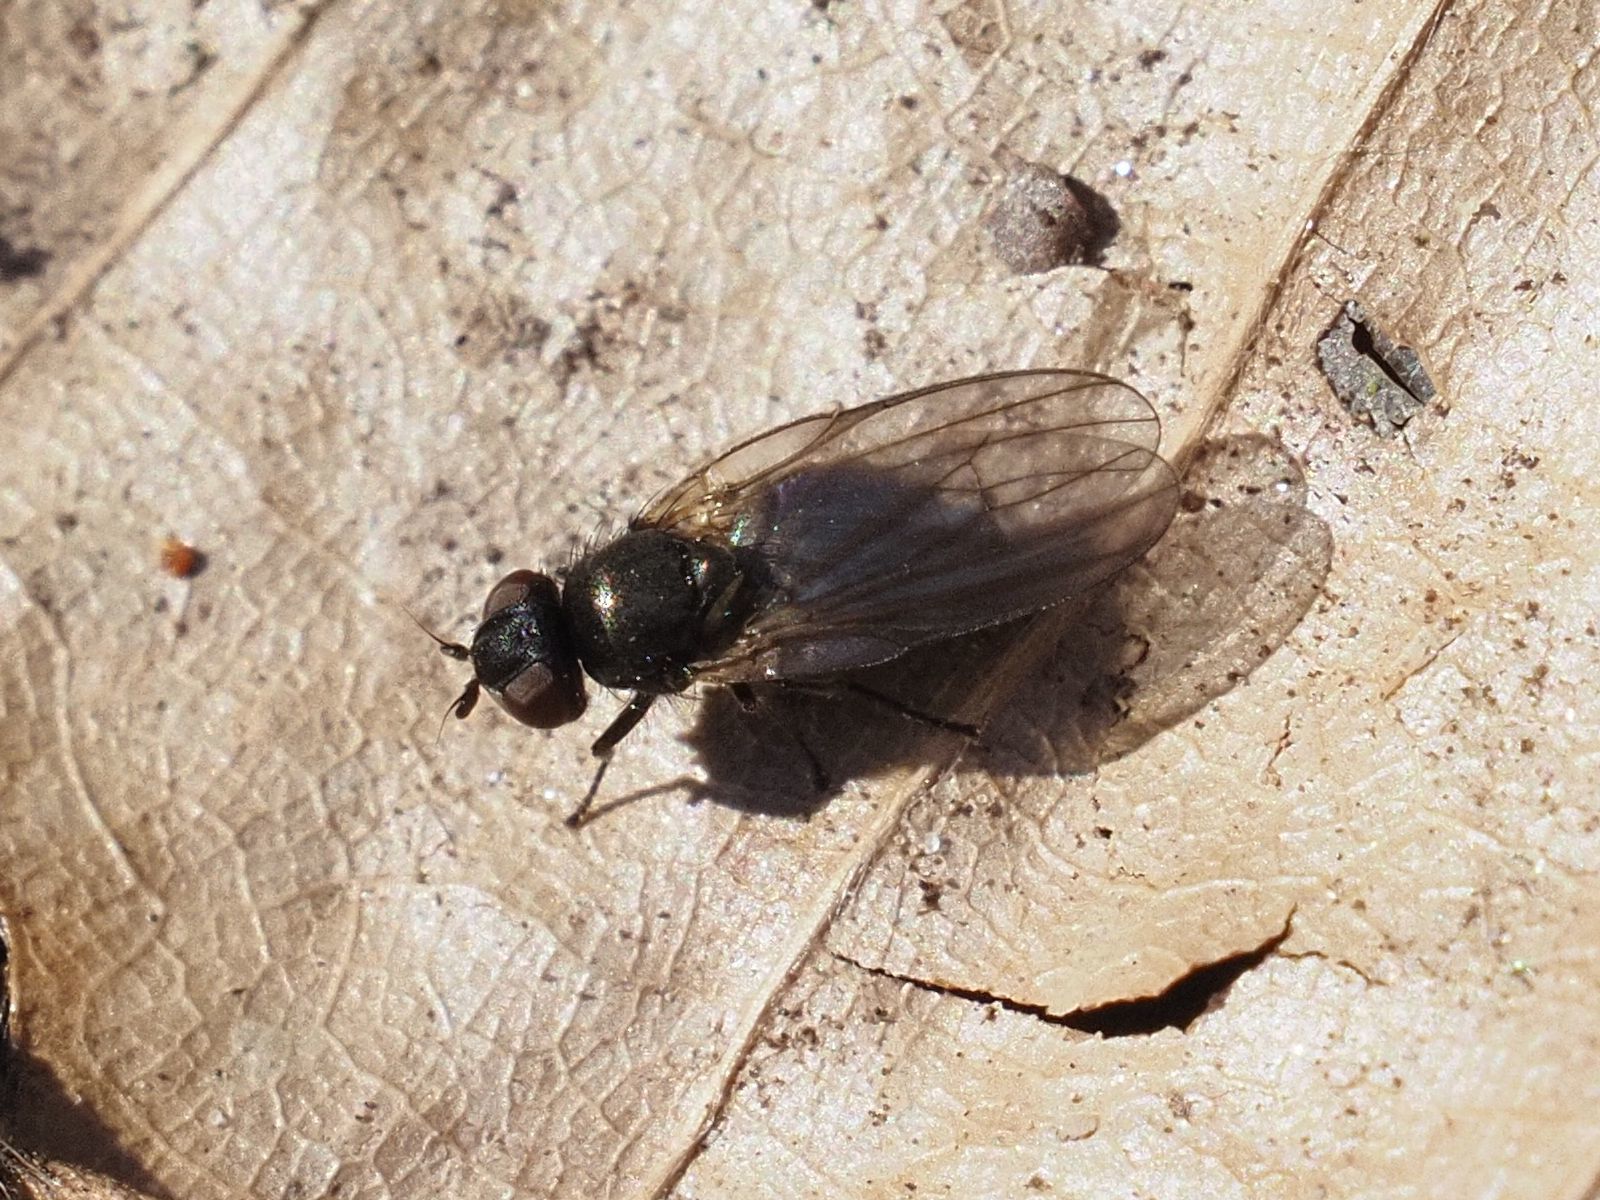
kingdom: Animalia
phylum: Arthropoda
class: Insecta
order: Diptera
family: Lonchaeidae
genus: Earomyia
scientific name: Earomyia lonchaeoides
